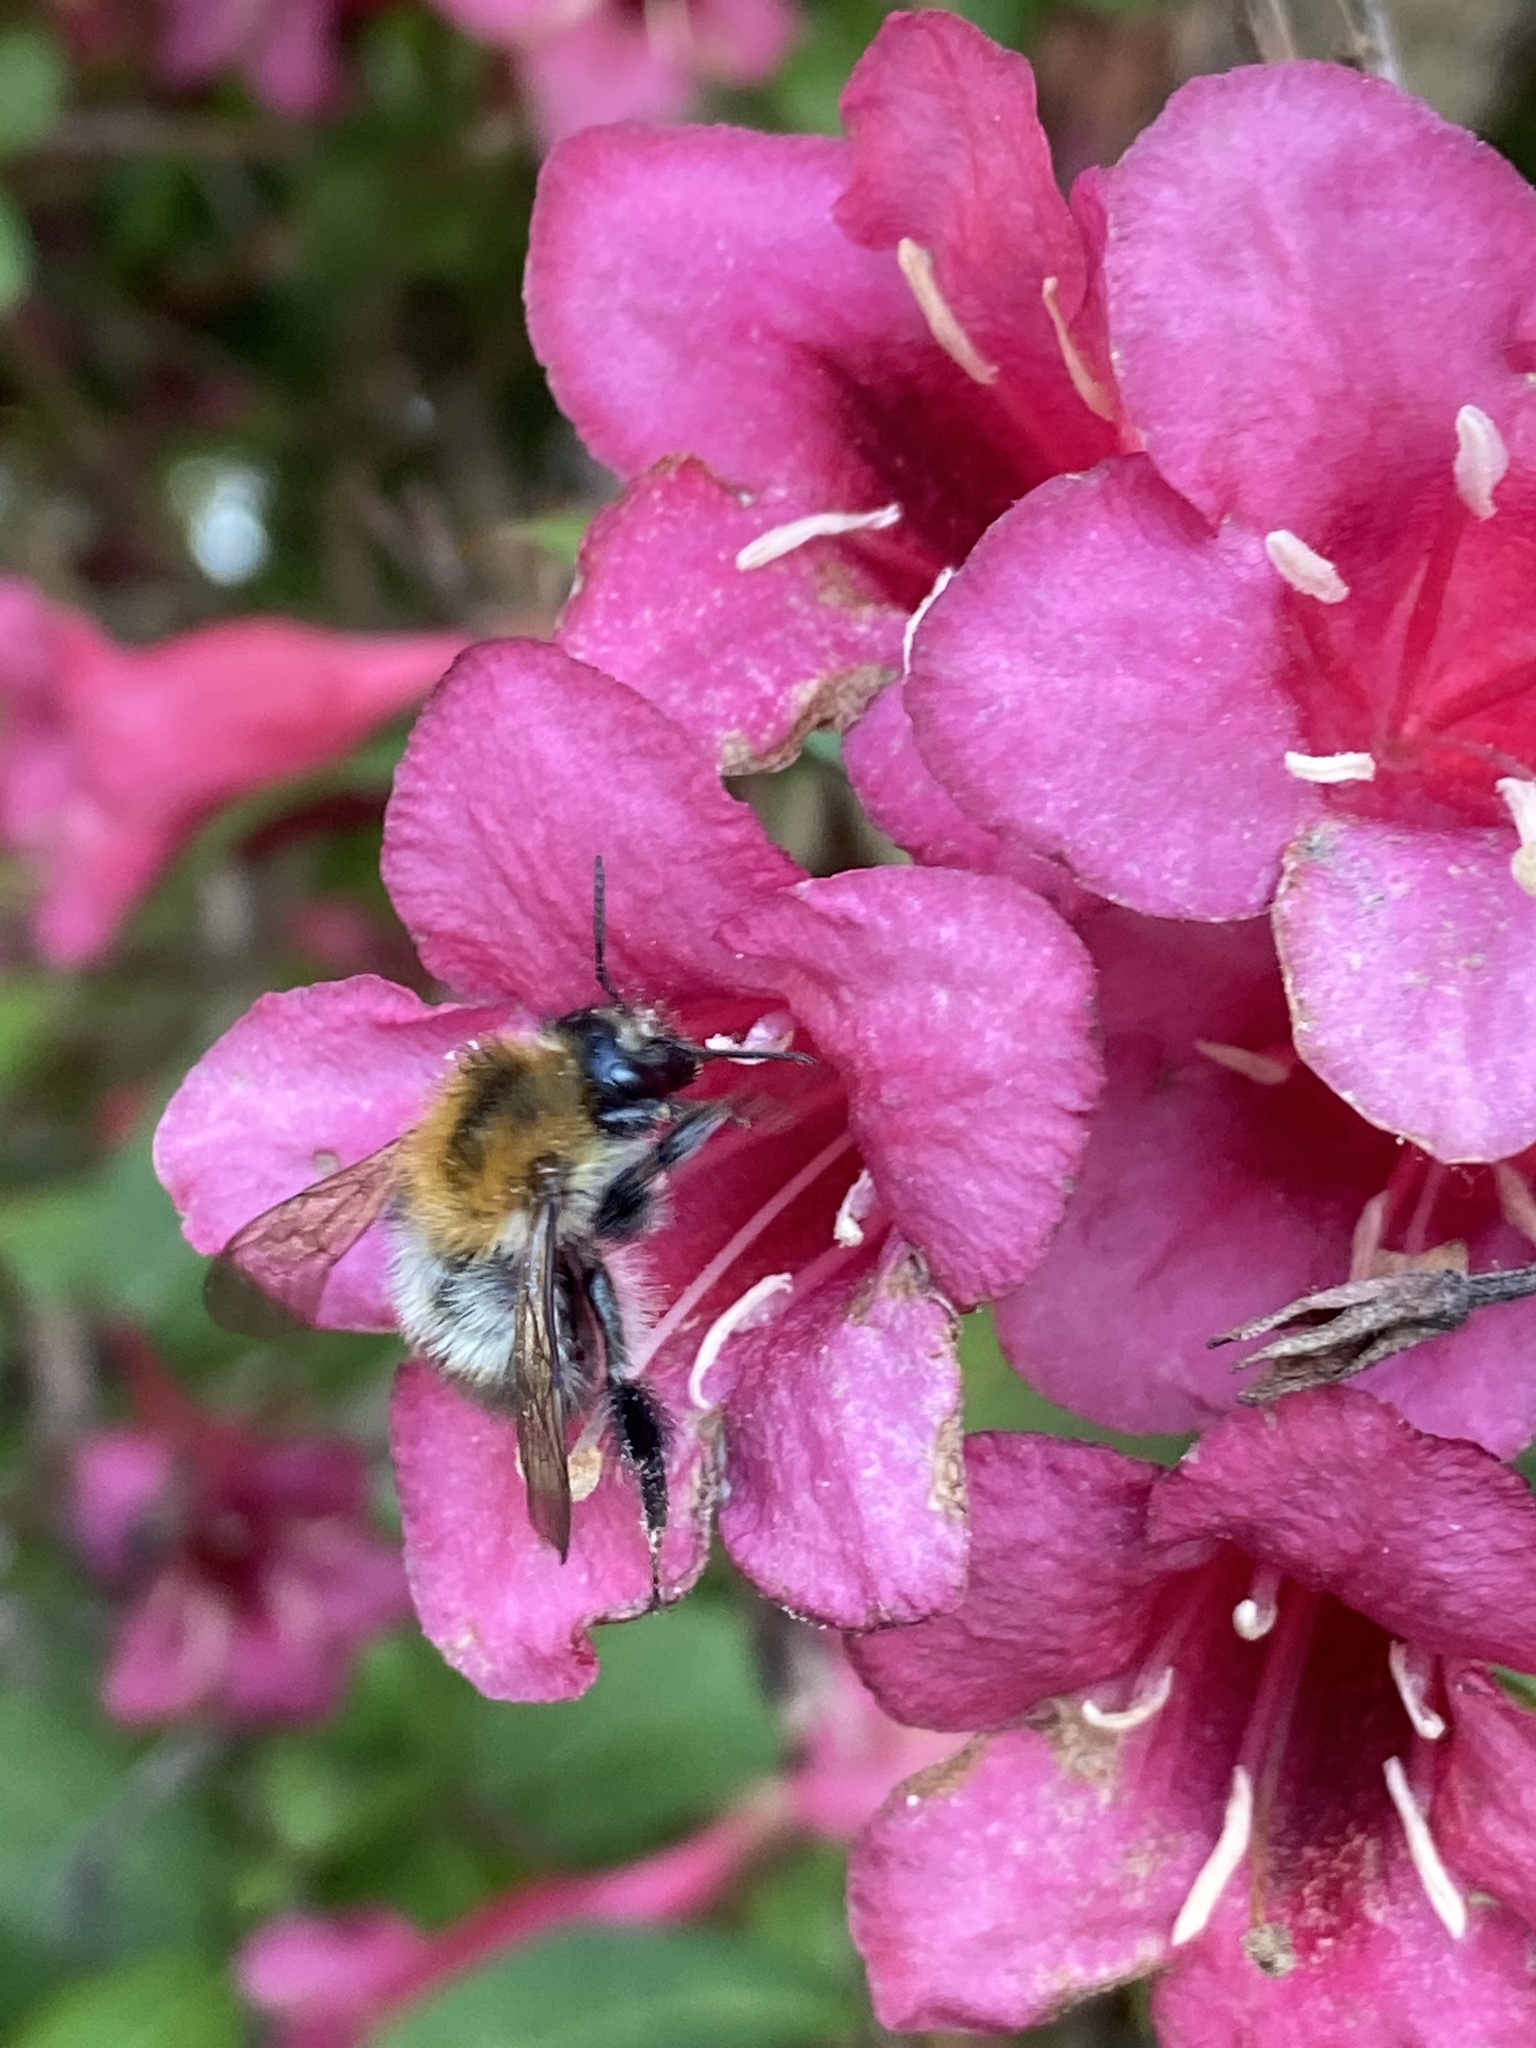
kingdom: Animalia
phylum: Arthropoda
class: Insecta
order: Hymenoptera
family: Apidae
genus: Bombus
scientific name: Bombus pascuorum
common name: Common carder bee
